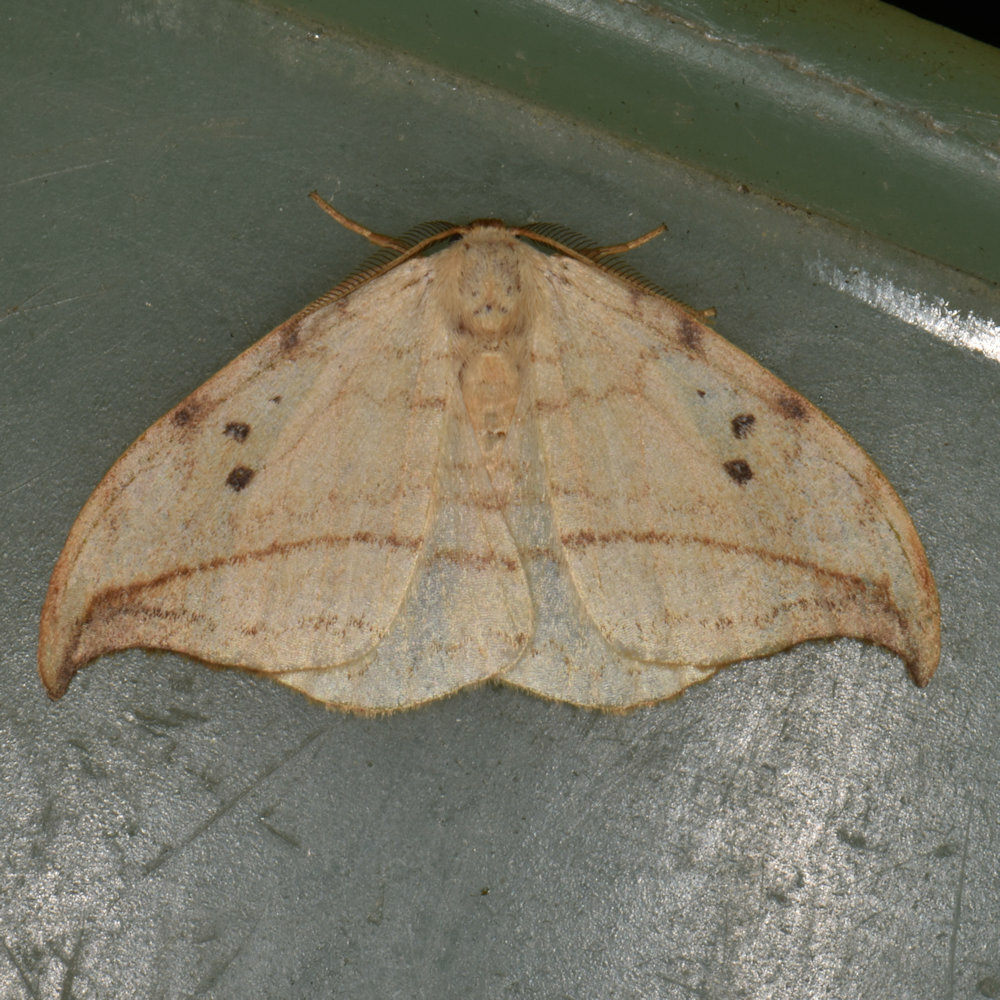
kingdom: Animalia
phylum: Arthropoda
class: Insecta
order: Lepidoptera
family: Drepanidae
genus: Drepana
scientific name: Drepana arcuata
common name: Arched hooktip moth
